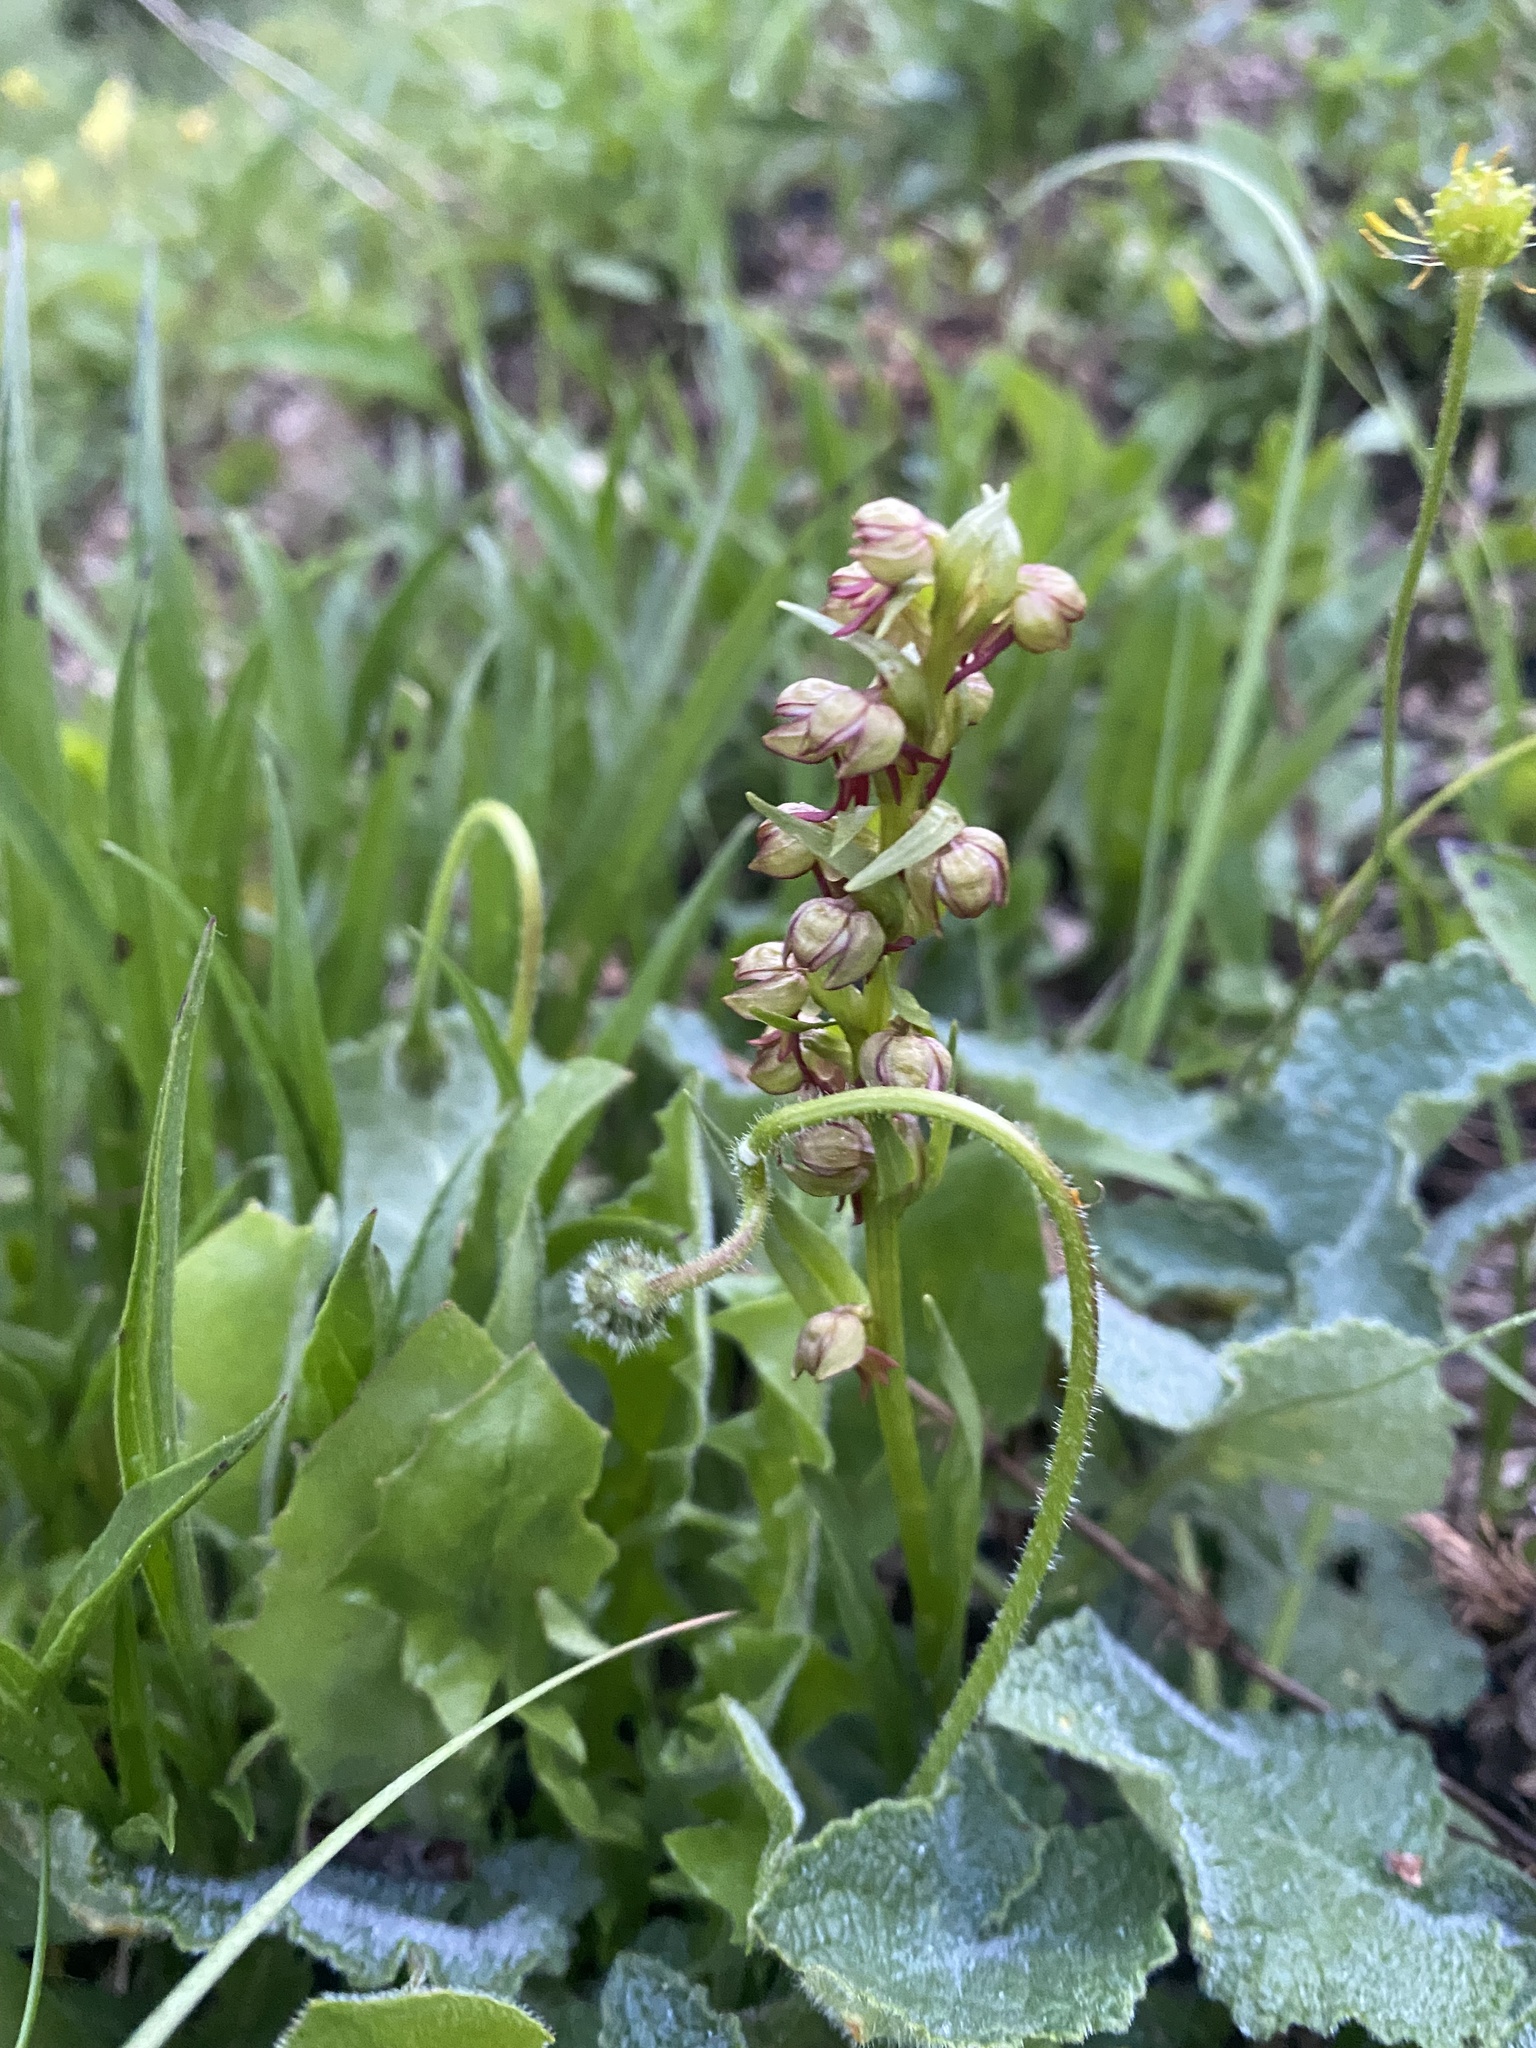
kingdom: Plantae
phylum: Tracheophyta
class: Liliopsida
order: Asparagales
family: Orchidaceae
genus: Dactylorhiza
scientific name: Dactylorhiza viridis
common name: Longbract frog orchid
